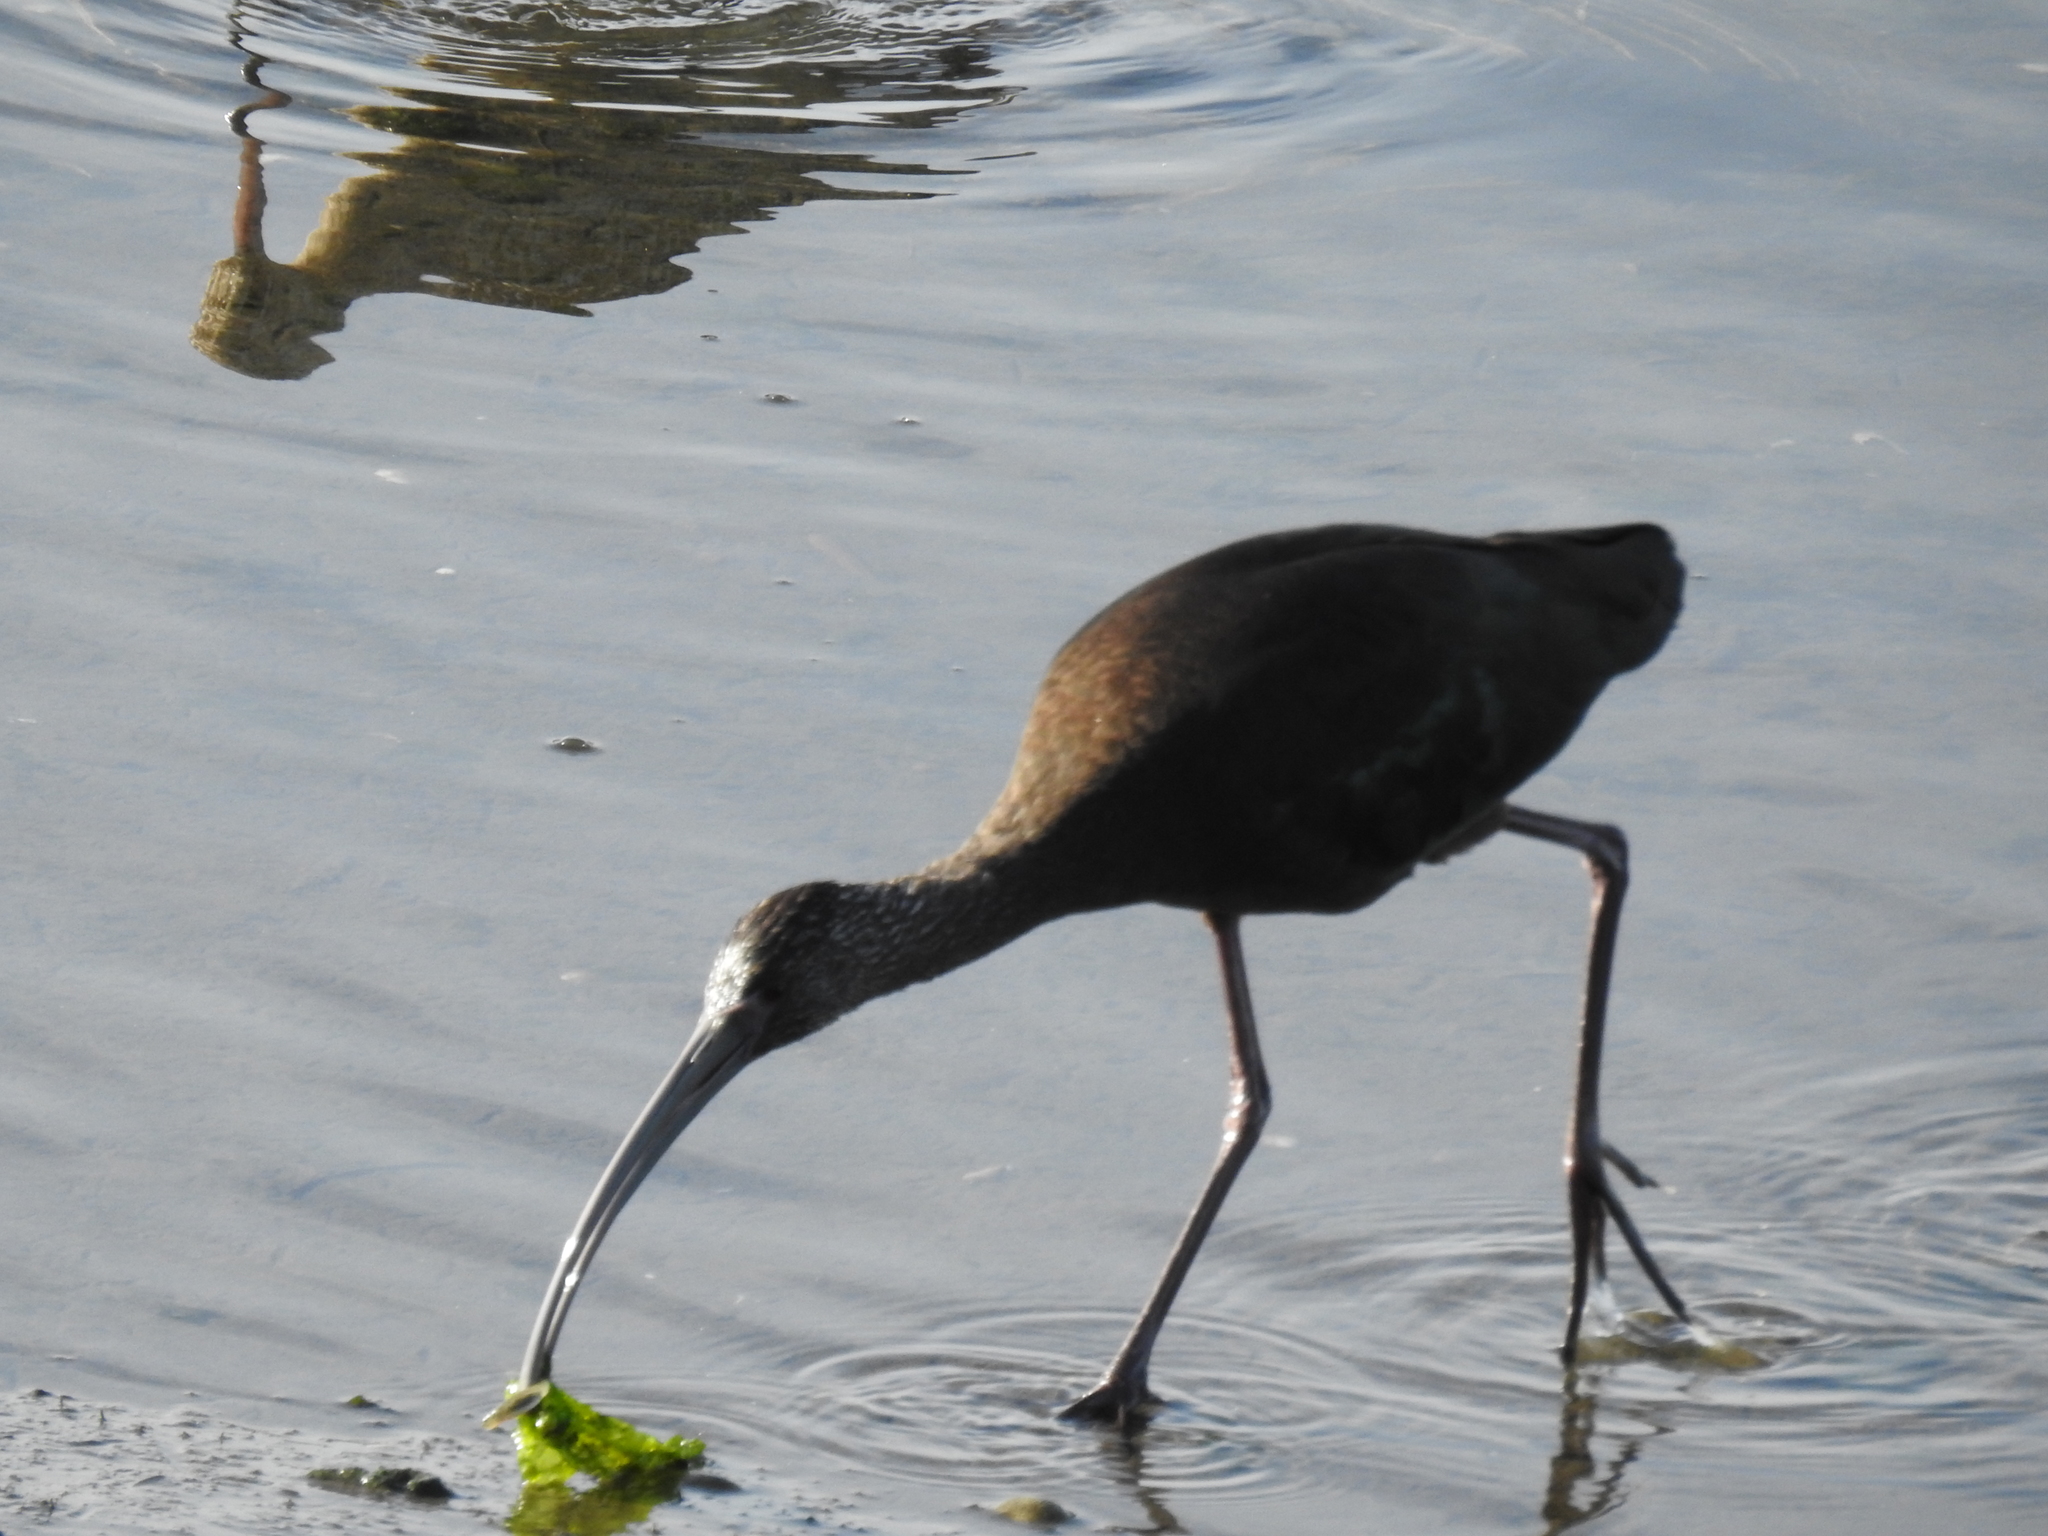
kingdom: Animalia
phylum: Chordata
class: Aves
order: Pelecaniformes
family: Threskiornithidae
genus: Plegadis
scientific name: Plegadis chihi
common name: White-faced ibis
